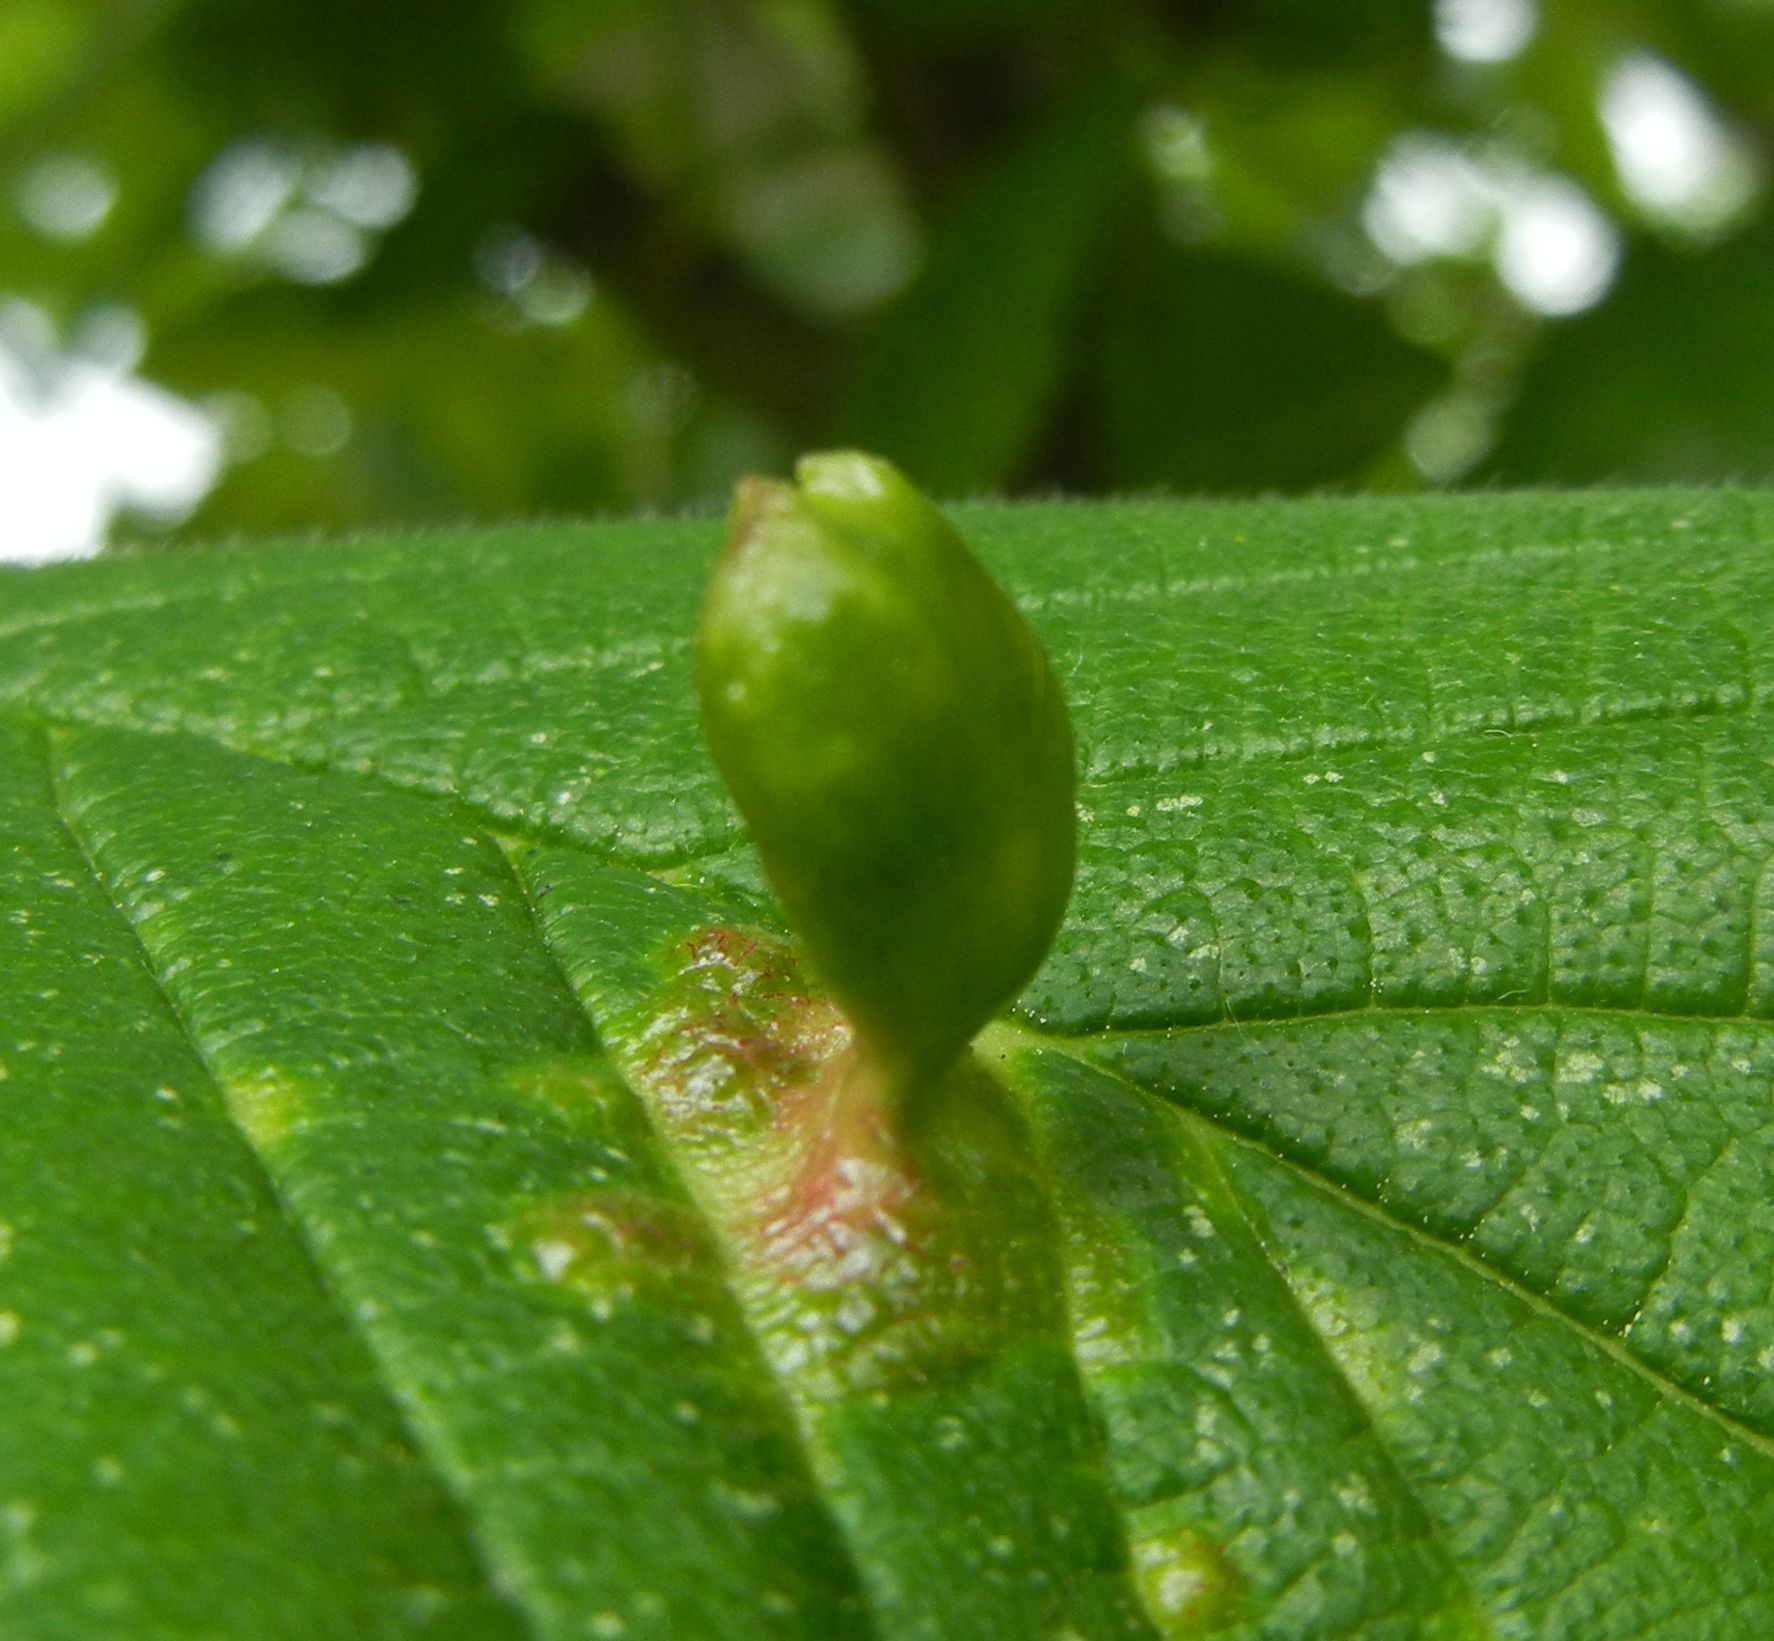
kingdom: Animalia
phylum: Arthropoda
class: Insecta
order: Hemiptera
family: Aphididae
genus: Tetraneura
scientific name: Tetraneura ulmi
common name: Aphid
